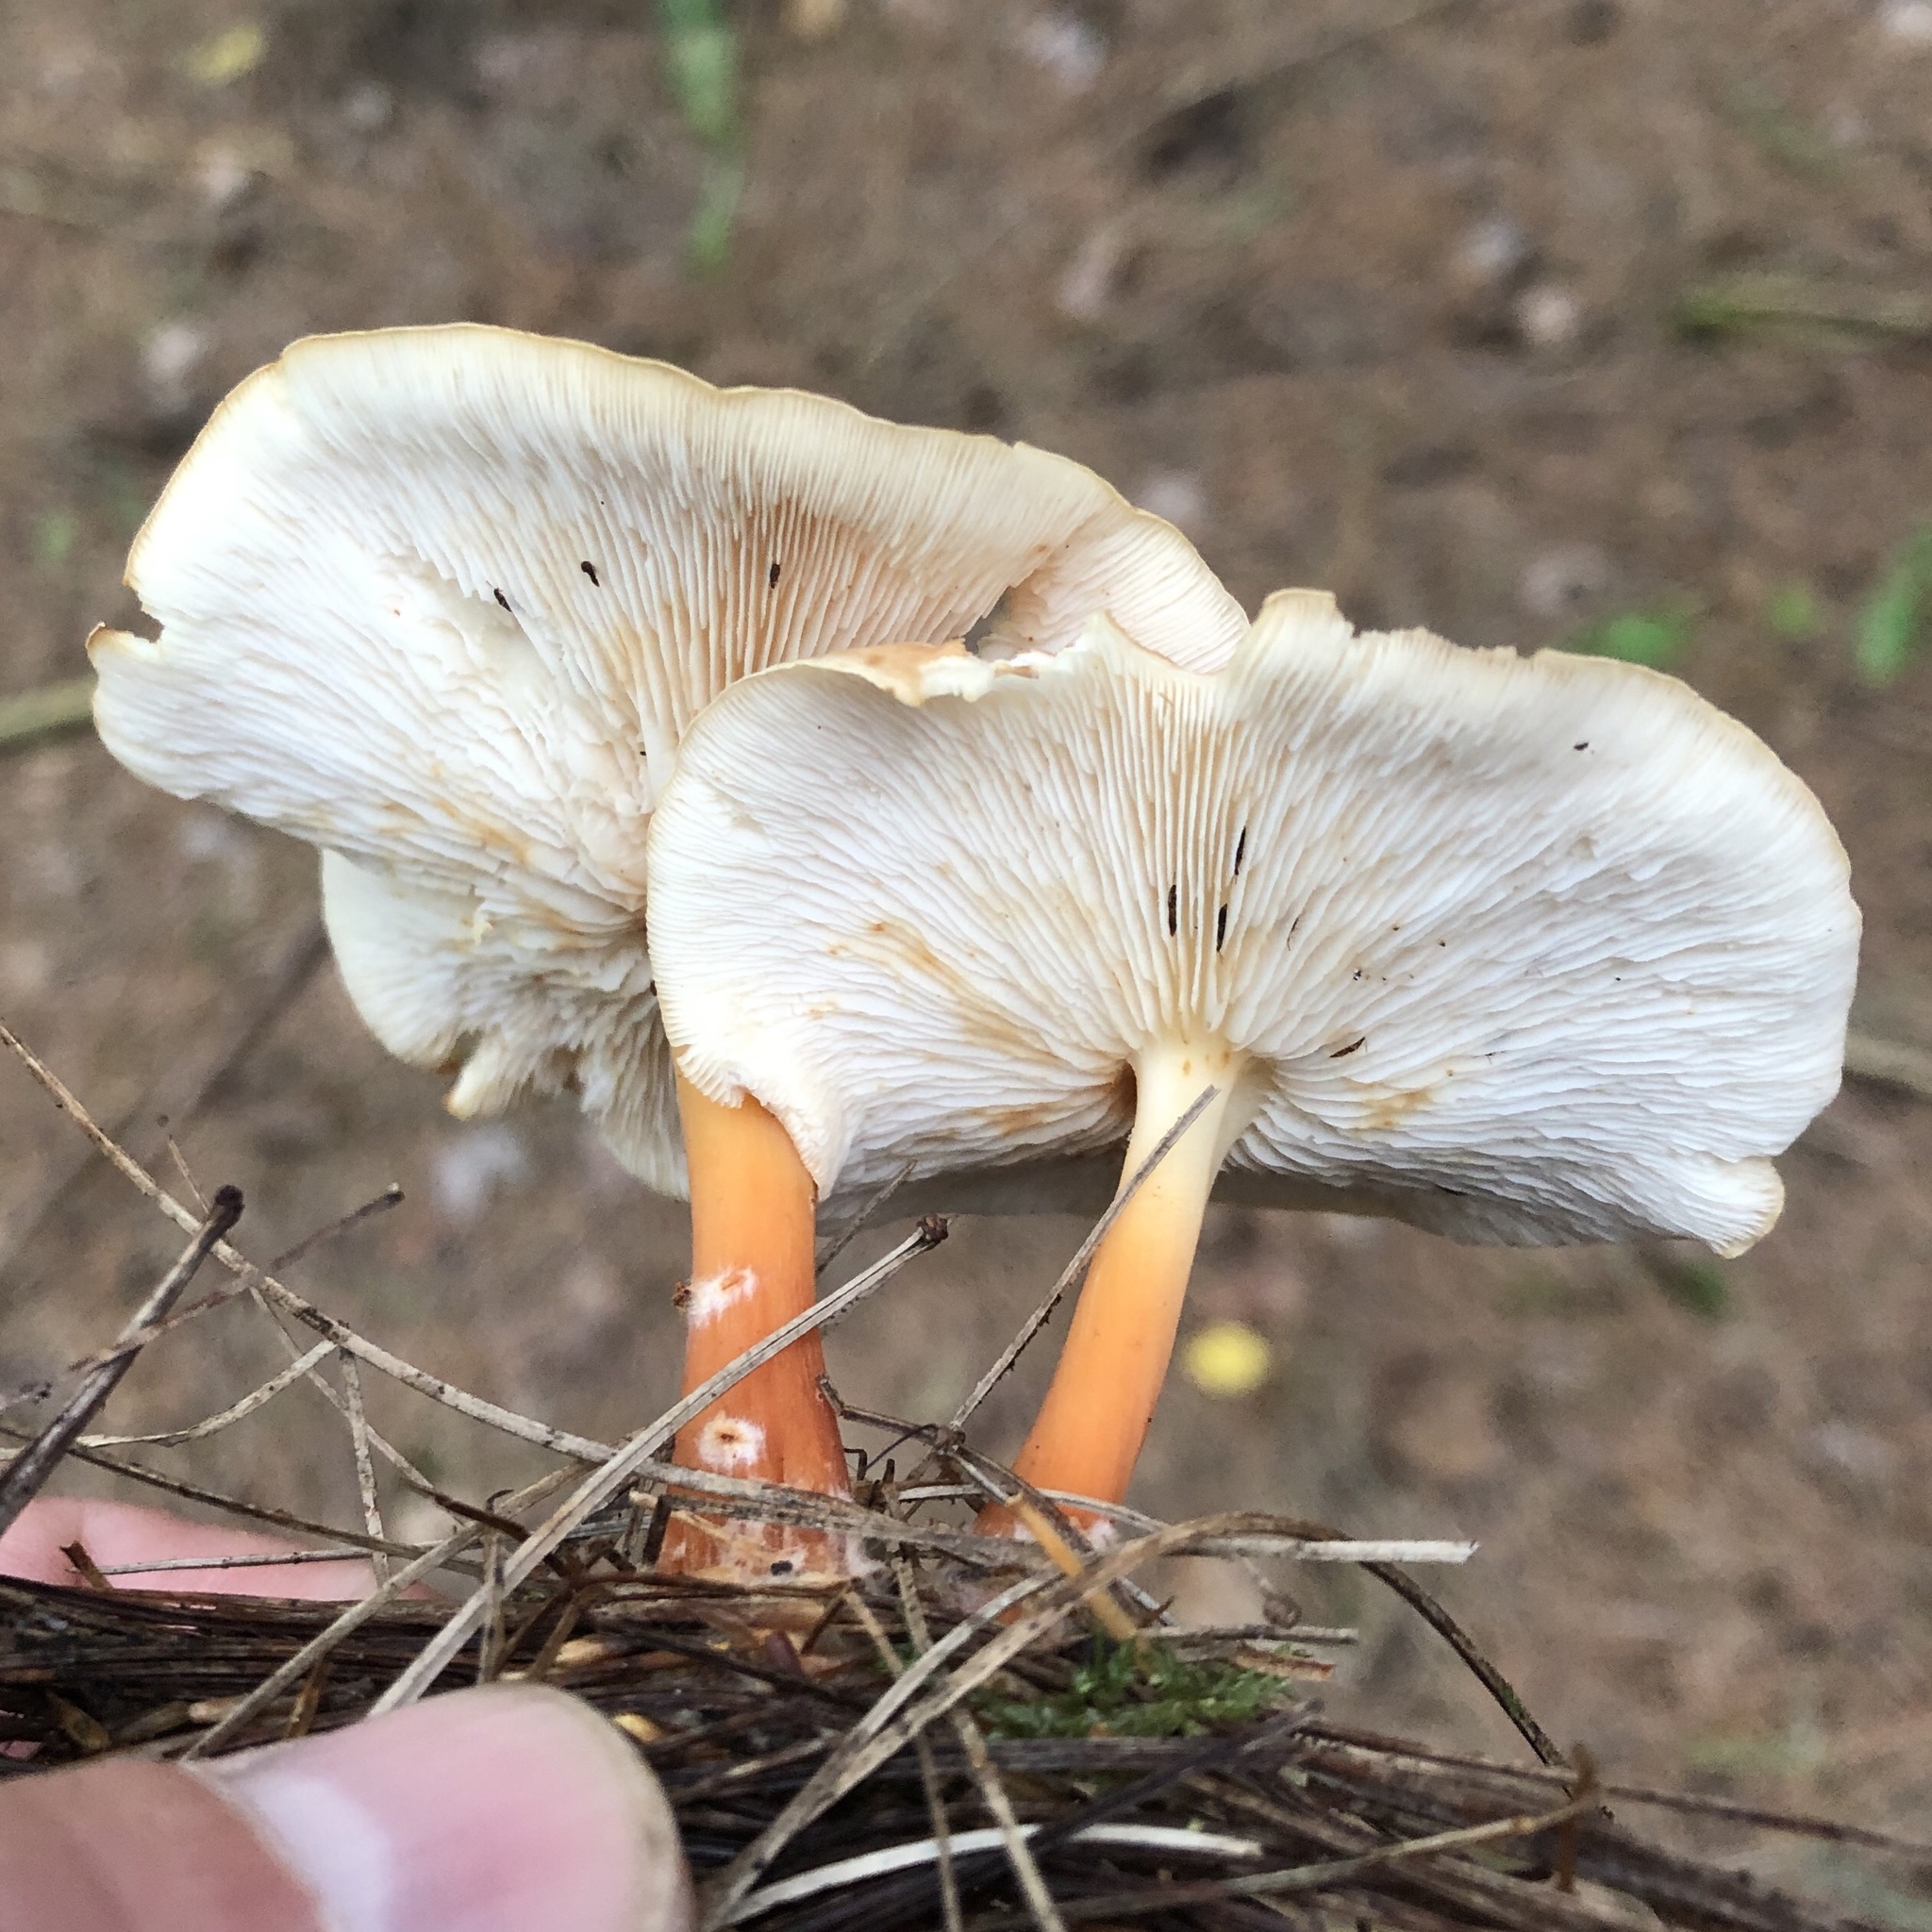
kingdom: Fungi
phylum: Basidiomycota
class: Agaricomycetes
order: Agaricales
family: Omphalotaceae
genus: Gymnopus
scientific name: Gymnopus dryophilus
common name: Penny top
